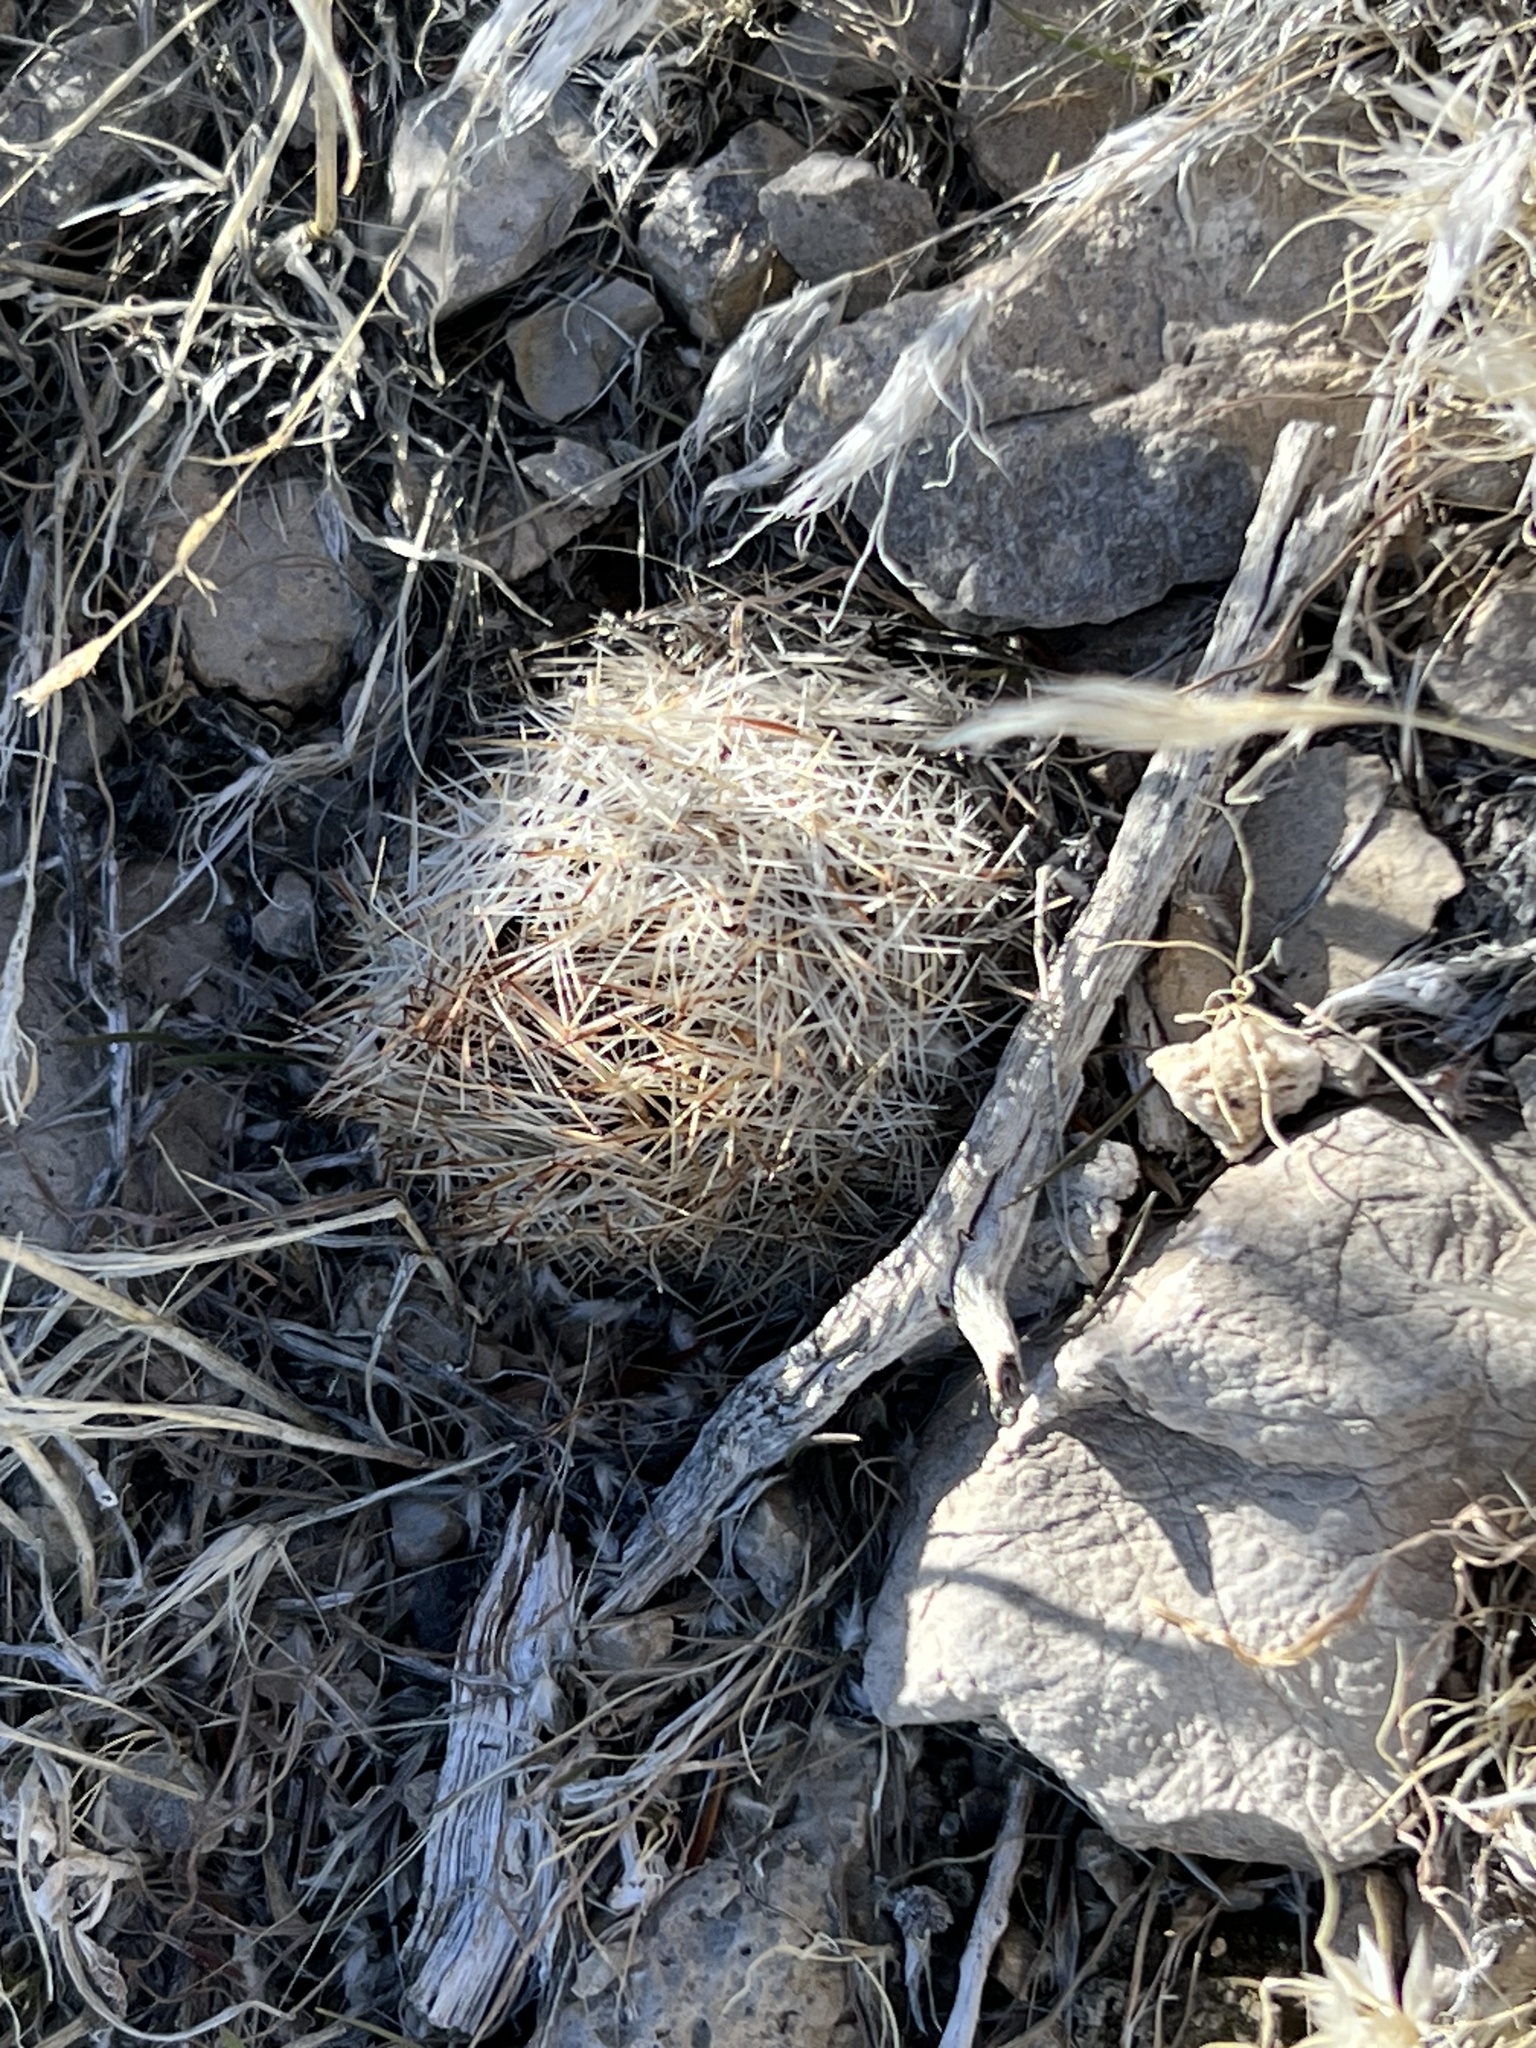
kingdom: Plantae
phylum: Tracheophyta
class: Magnoliopsida
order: Caryophyllales
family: Cactaceae
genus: Pelecyphora
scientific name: Pelecyphora dasyacantha
